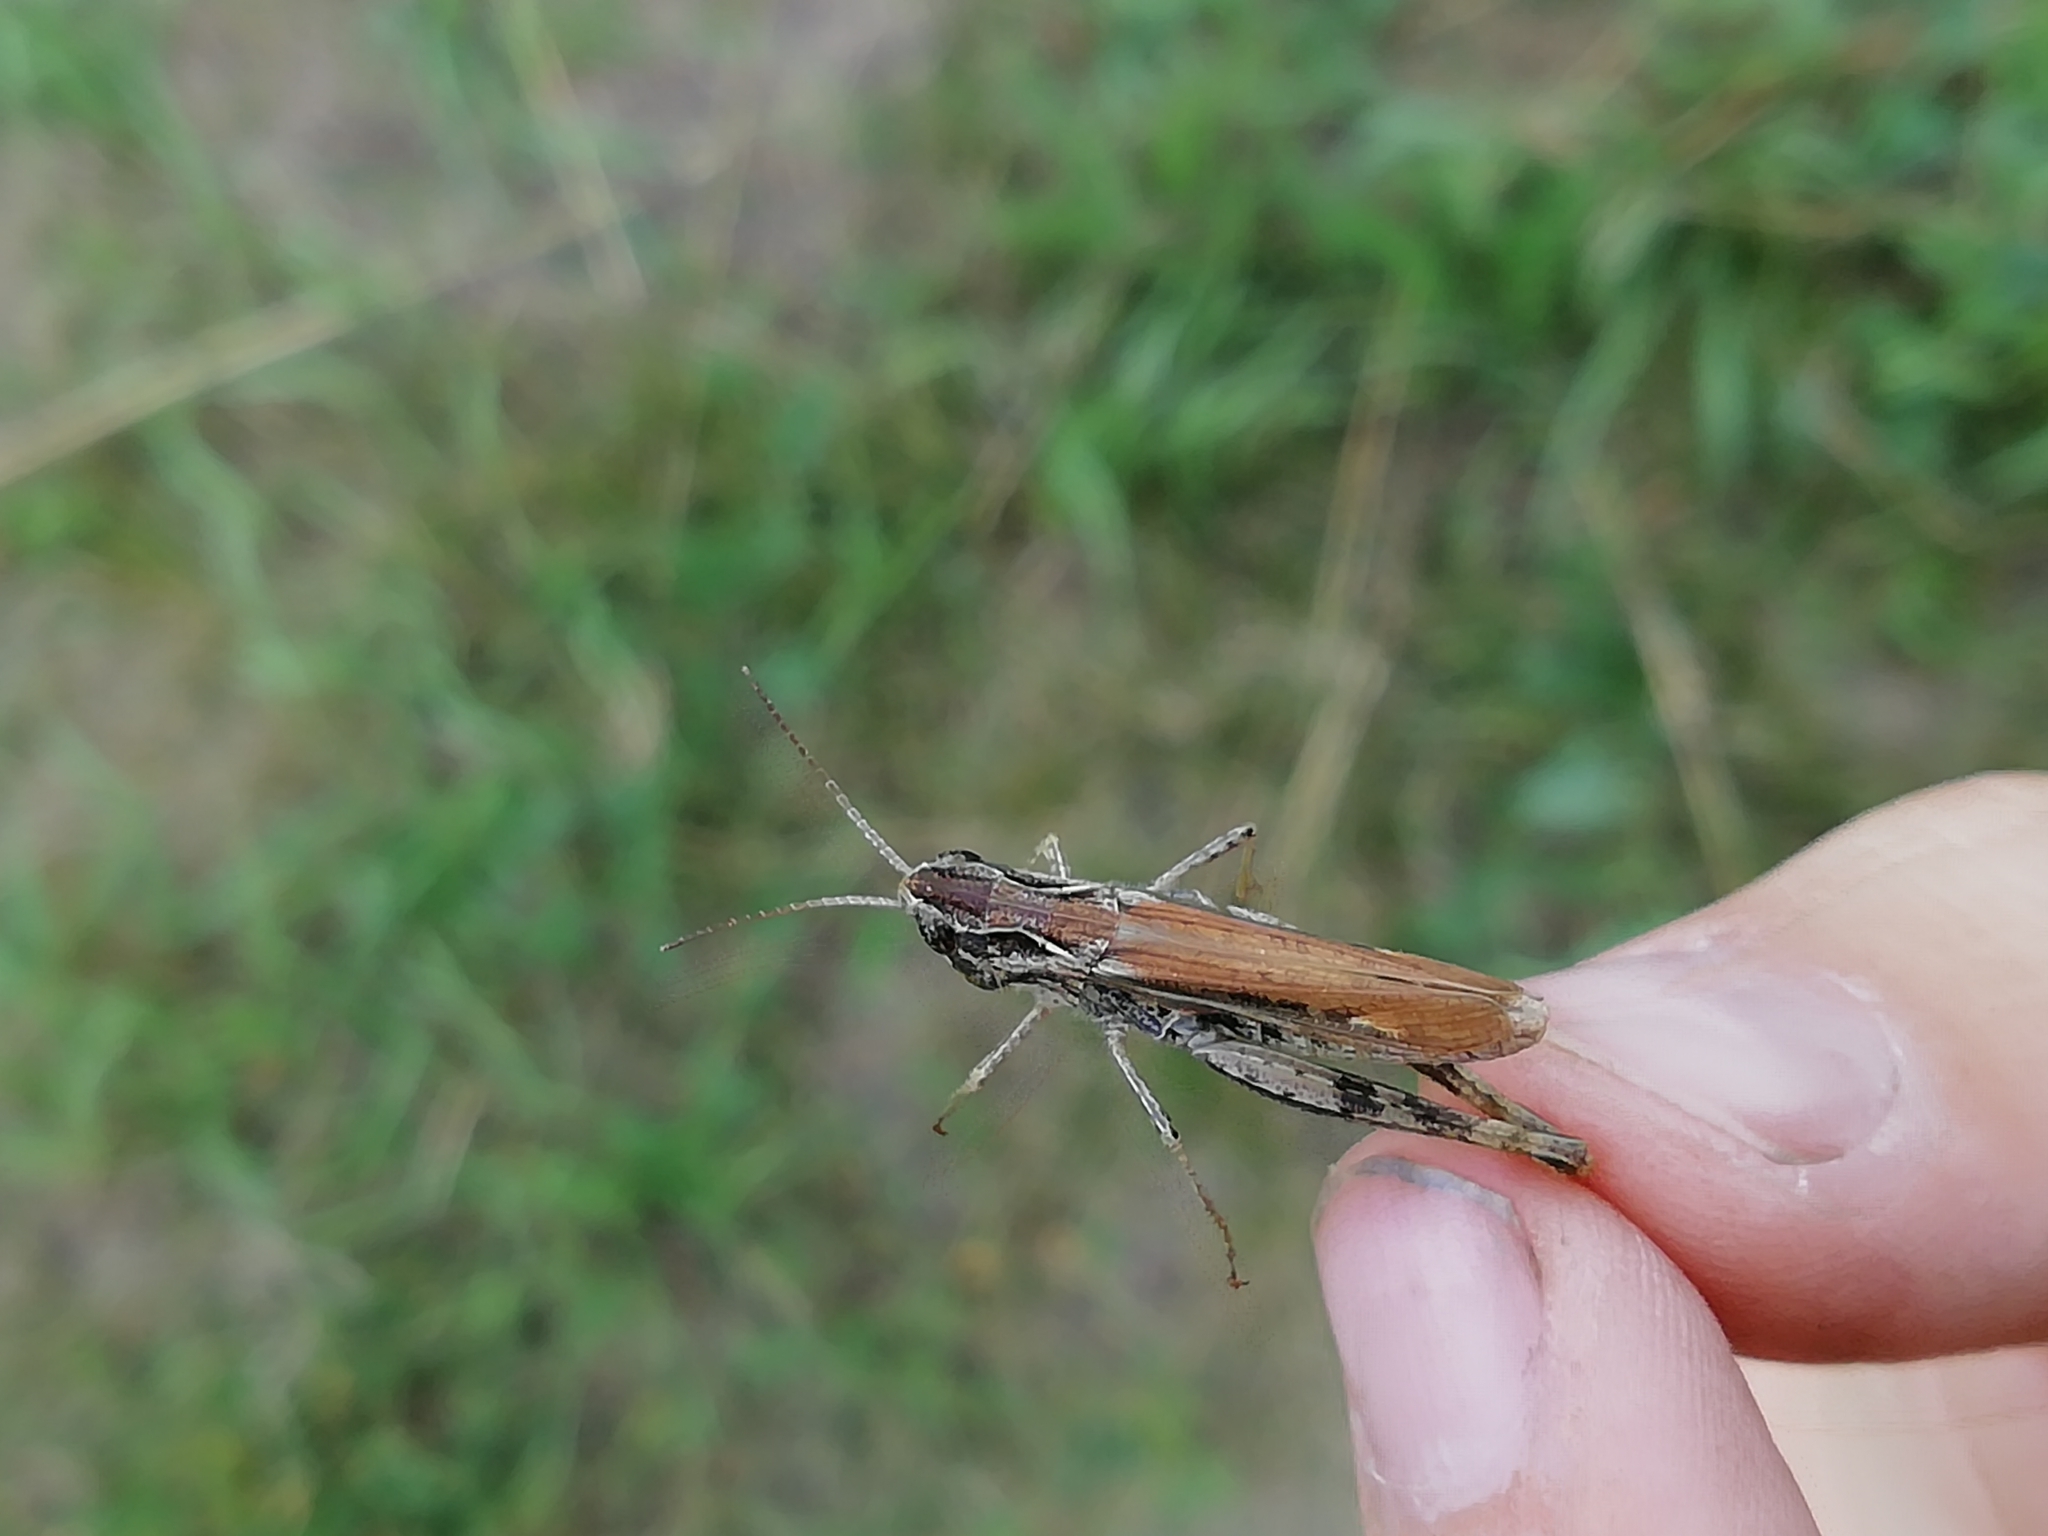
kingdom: Animalia
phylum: Arthropoda
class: Insecta
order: Orthoptera
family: Acrididae
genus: Chorthippus
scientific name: Chorthippus apricarius
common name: Upland field grasshopper
